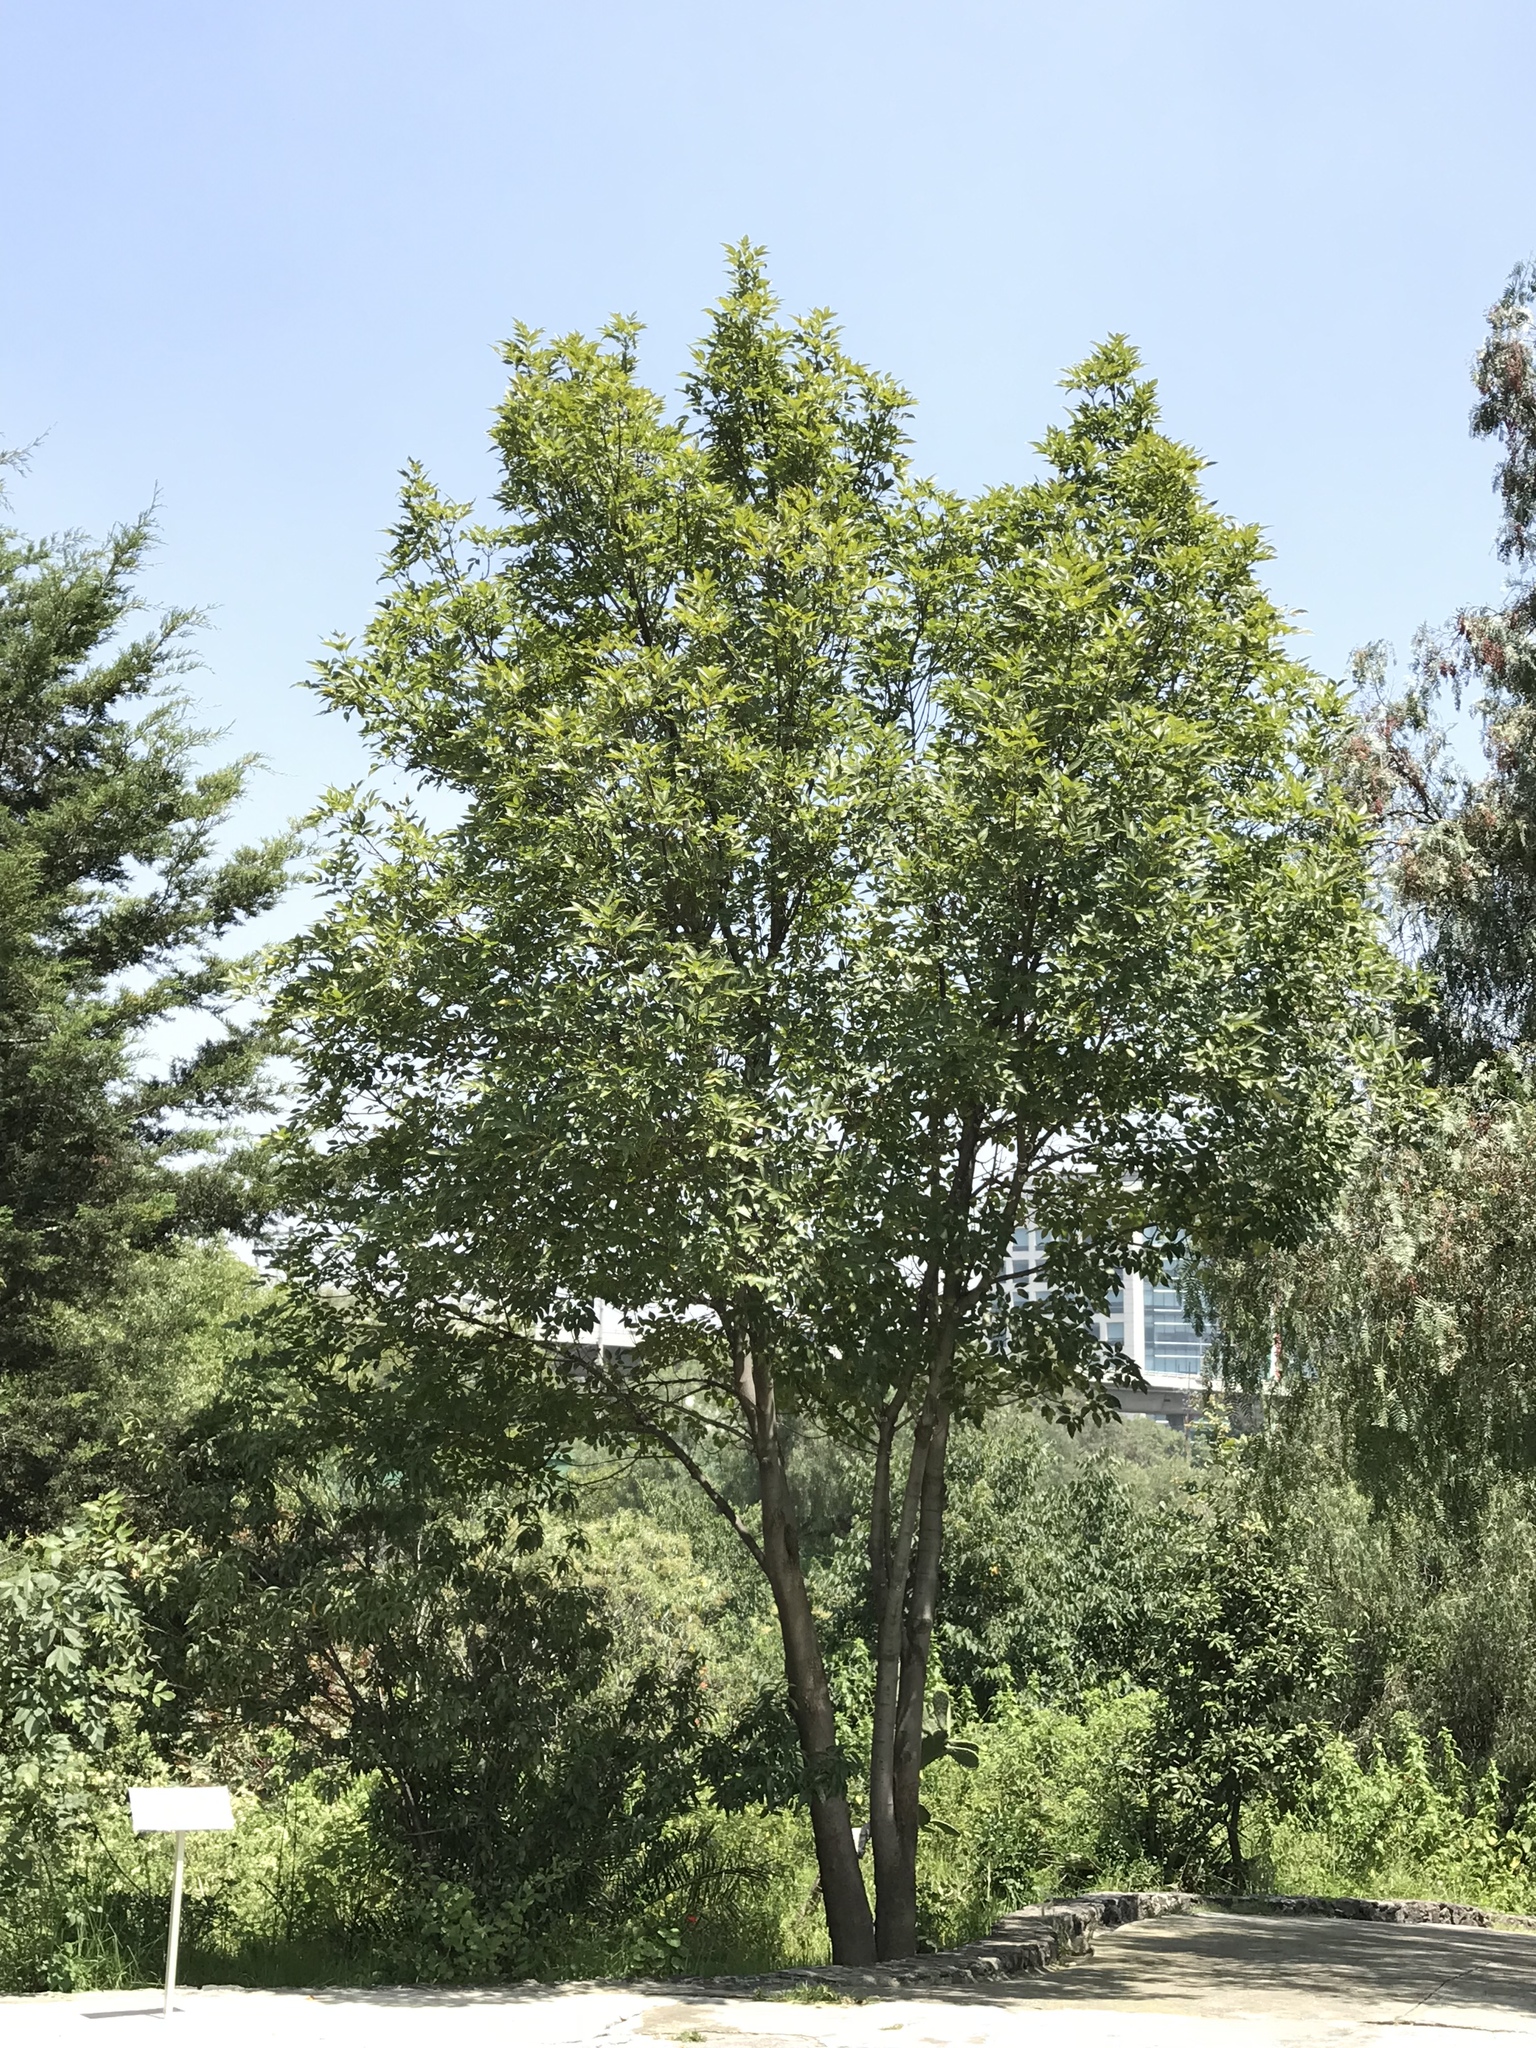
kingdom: Plantae
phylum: Tracheophyta
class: Magnoliopsida
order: Lamiales
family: Oleaceae
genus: Fraxinus
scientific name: Fraxinus uhdei
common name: Shamel ash
